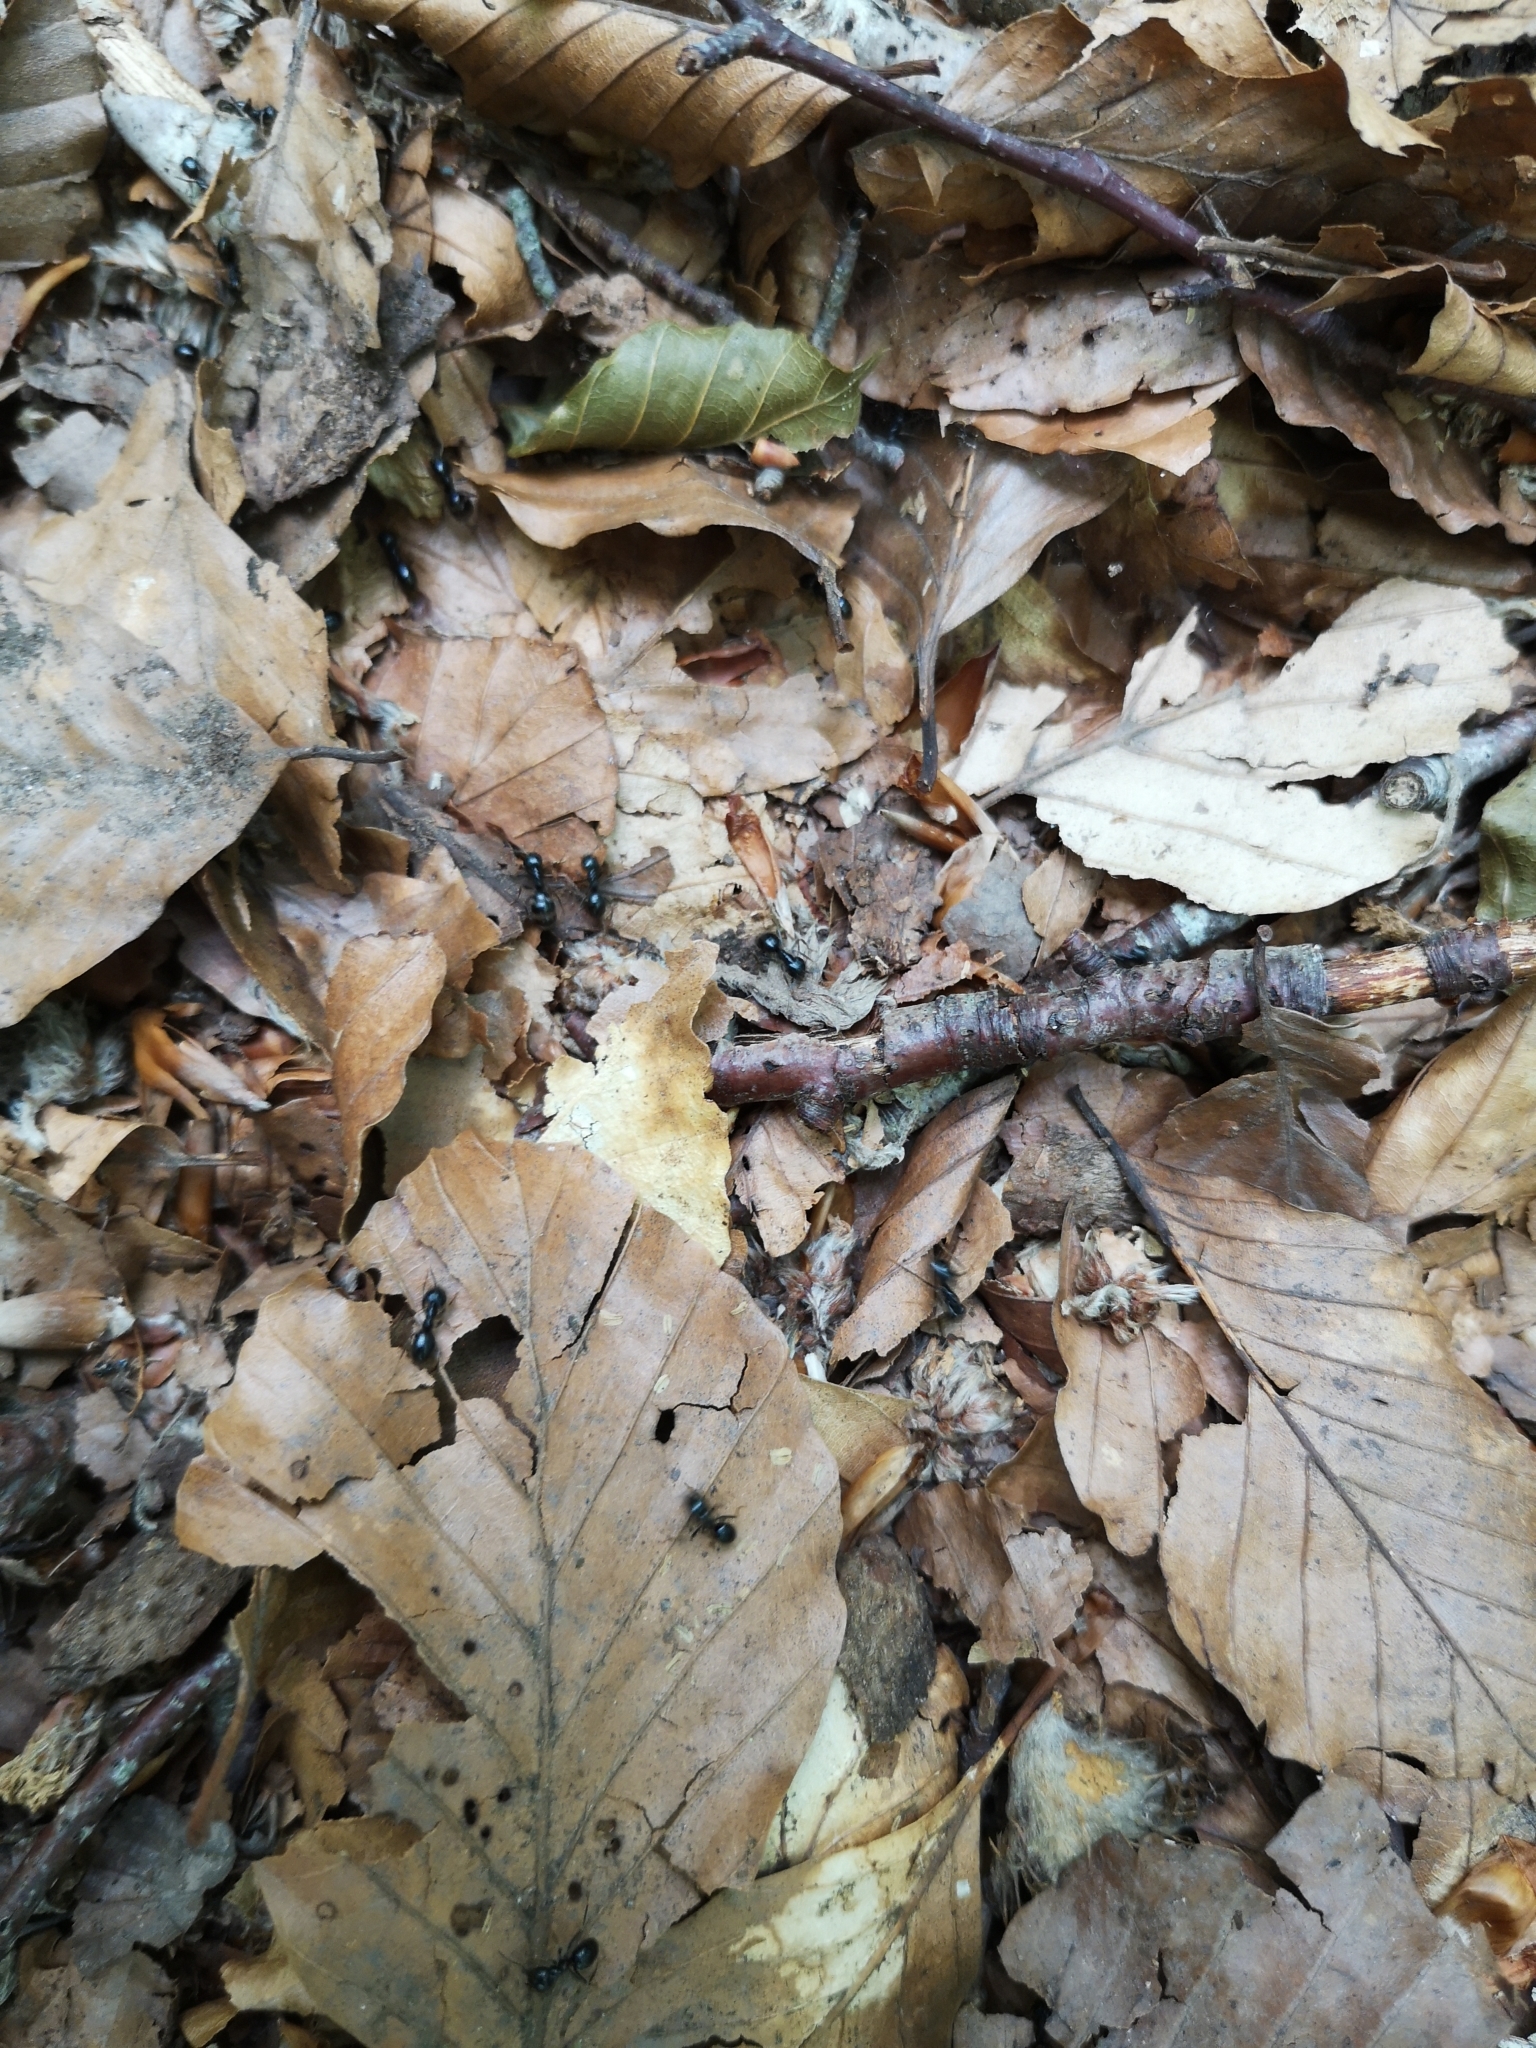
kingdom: Animalia
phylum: Arthropoda
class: Insecta
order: Hymenoptera
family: Formicidae
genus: Lasius
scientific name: Lasius fuliginosus
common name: Jet ant
